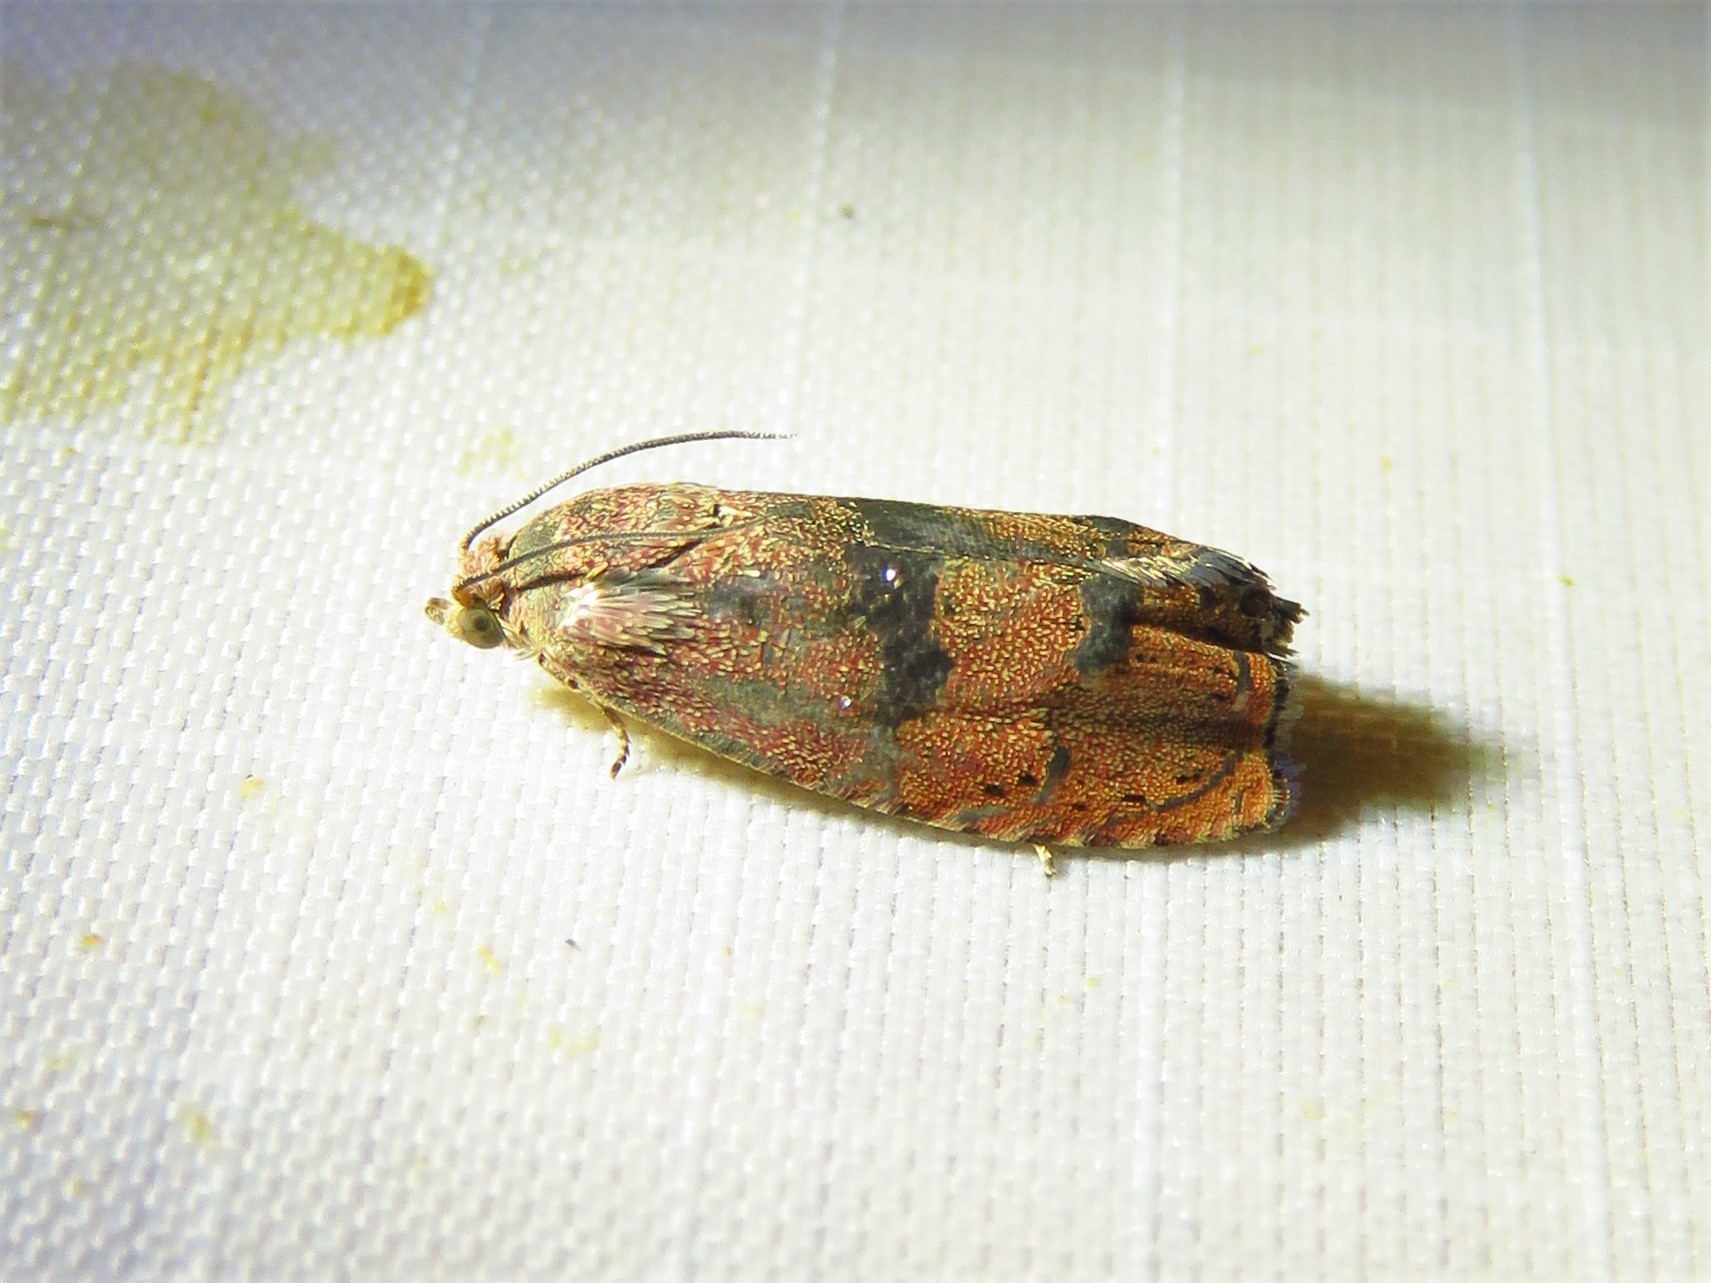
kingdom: Animalia
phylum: Arthropoda
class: Insecta
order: Lepidoptera
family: Tortricidae
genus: Cydia
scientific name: Cydia latiferreana
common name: Filbertworm moth
